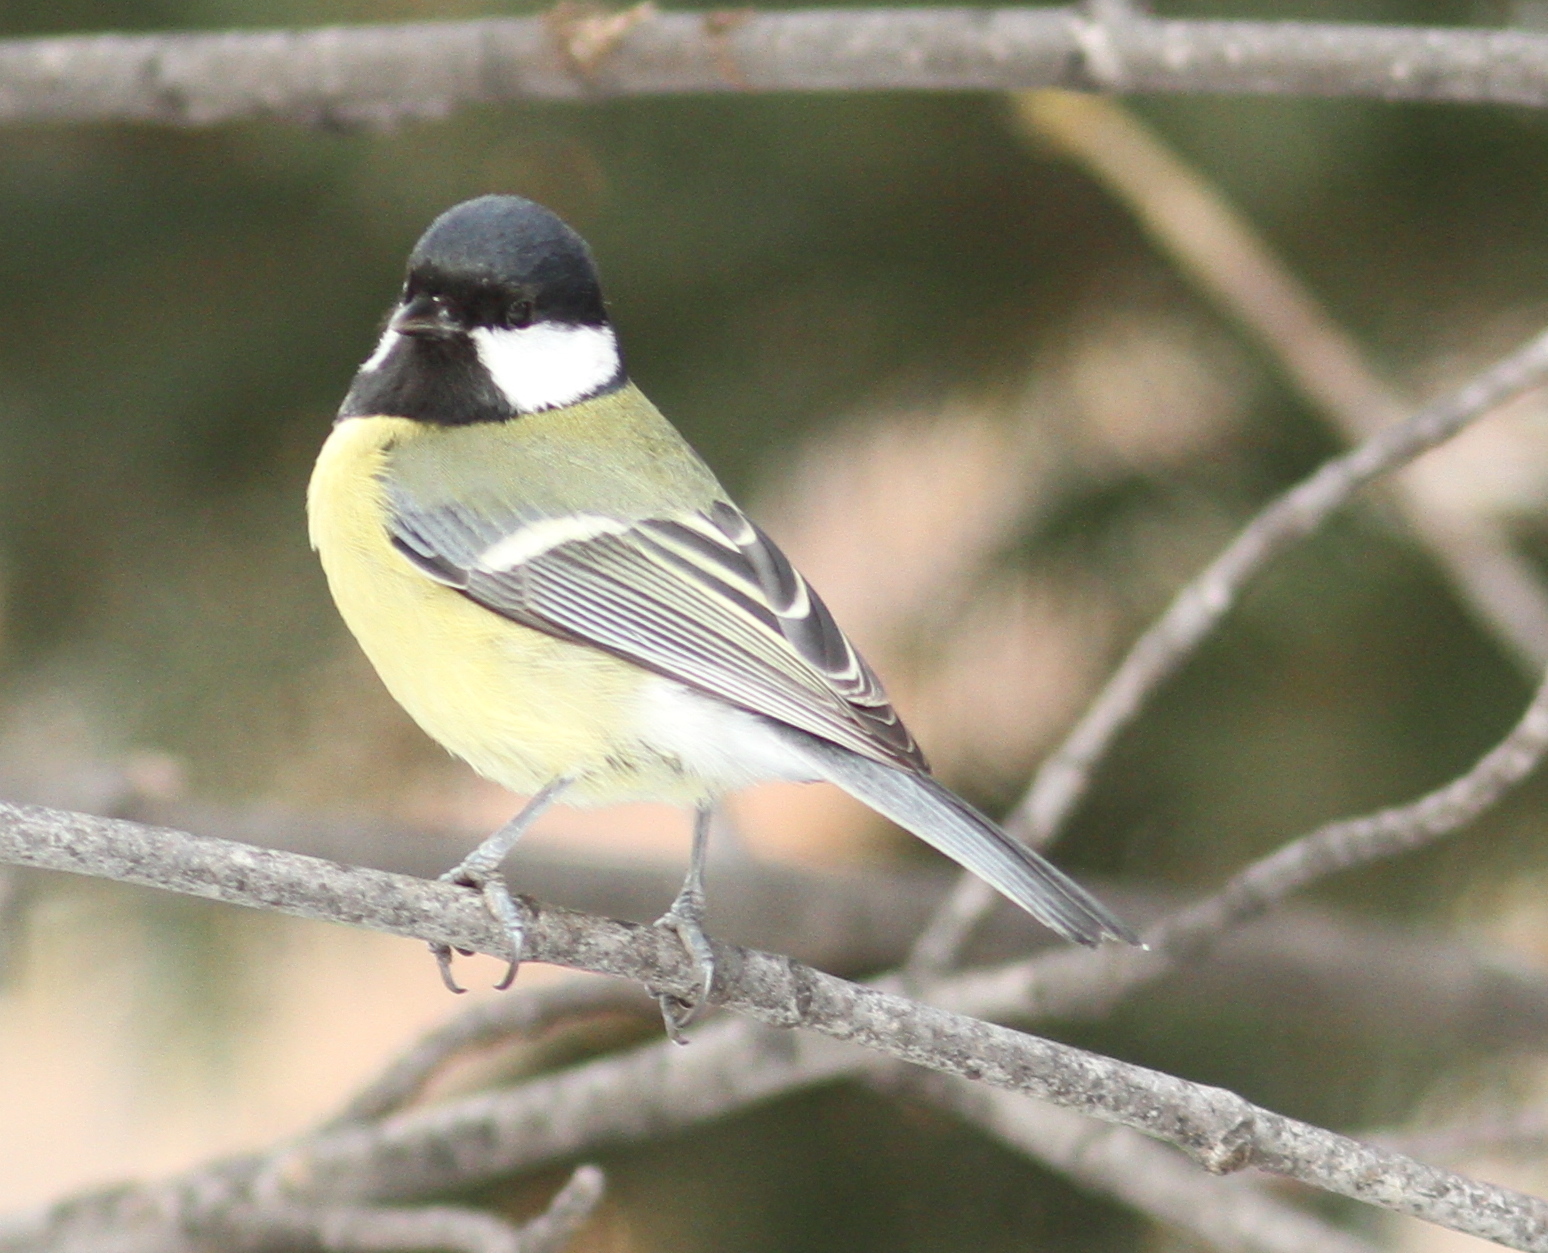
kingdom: Animalia
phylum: Chordata
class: Aves
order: Passeriformes
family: Paridae
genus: Parus
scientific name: Parus major
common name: Great tit
